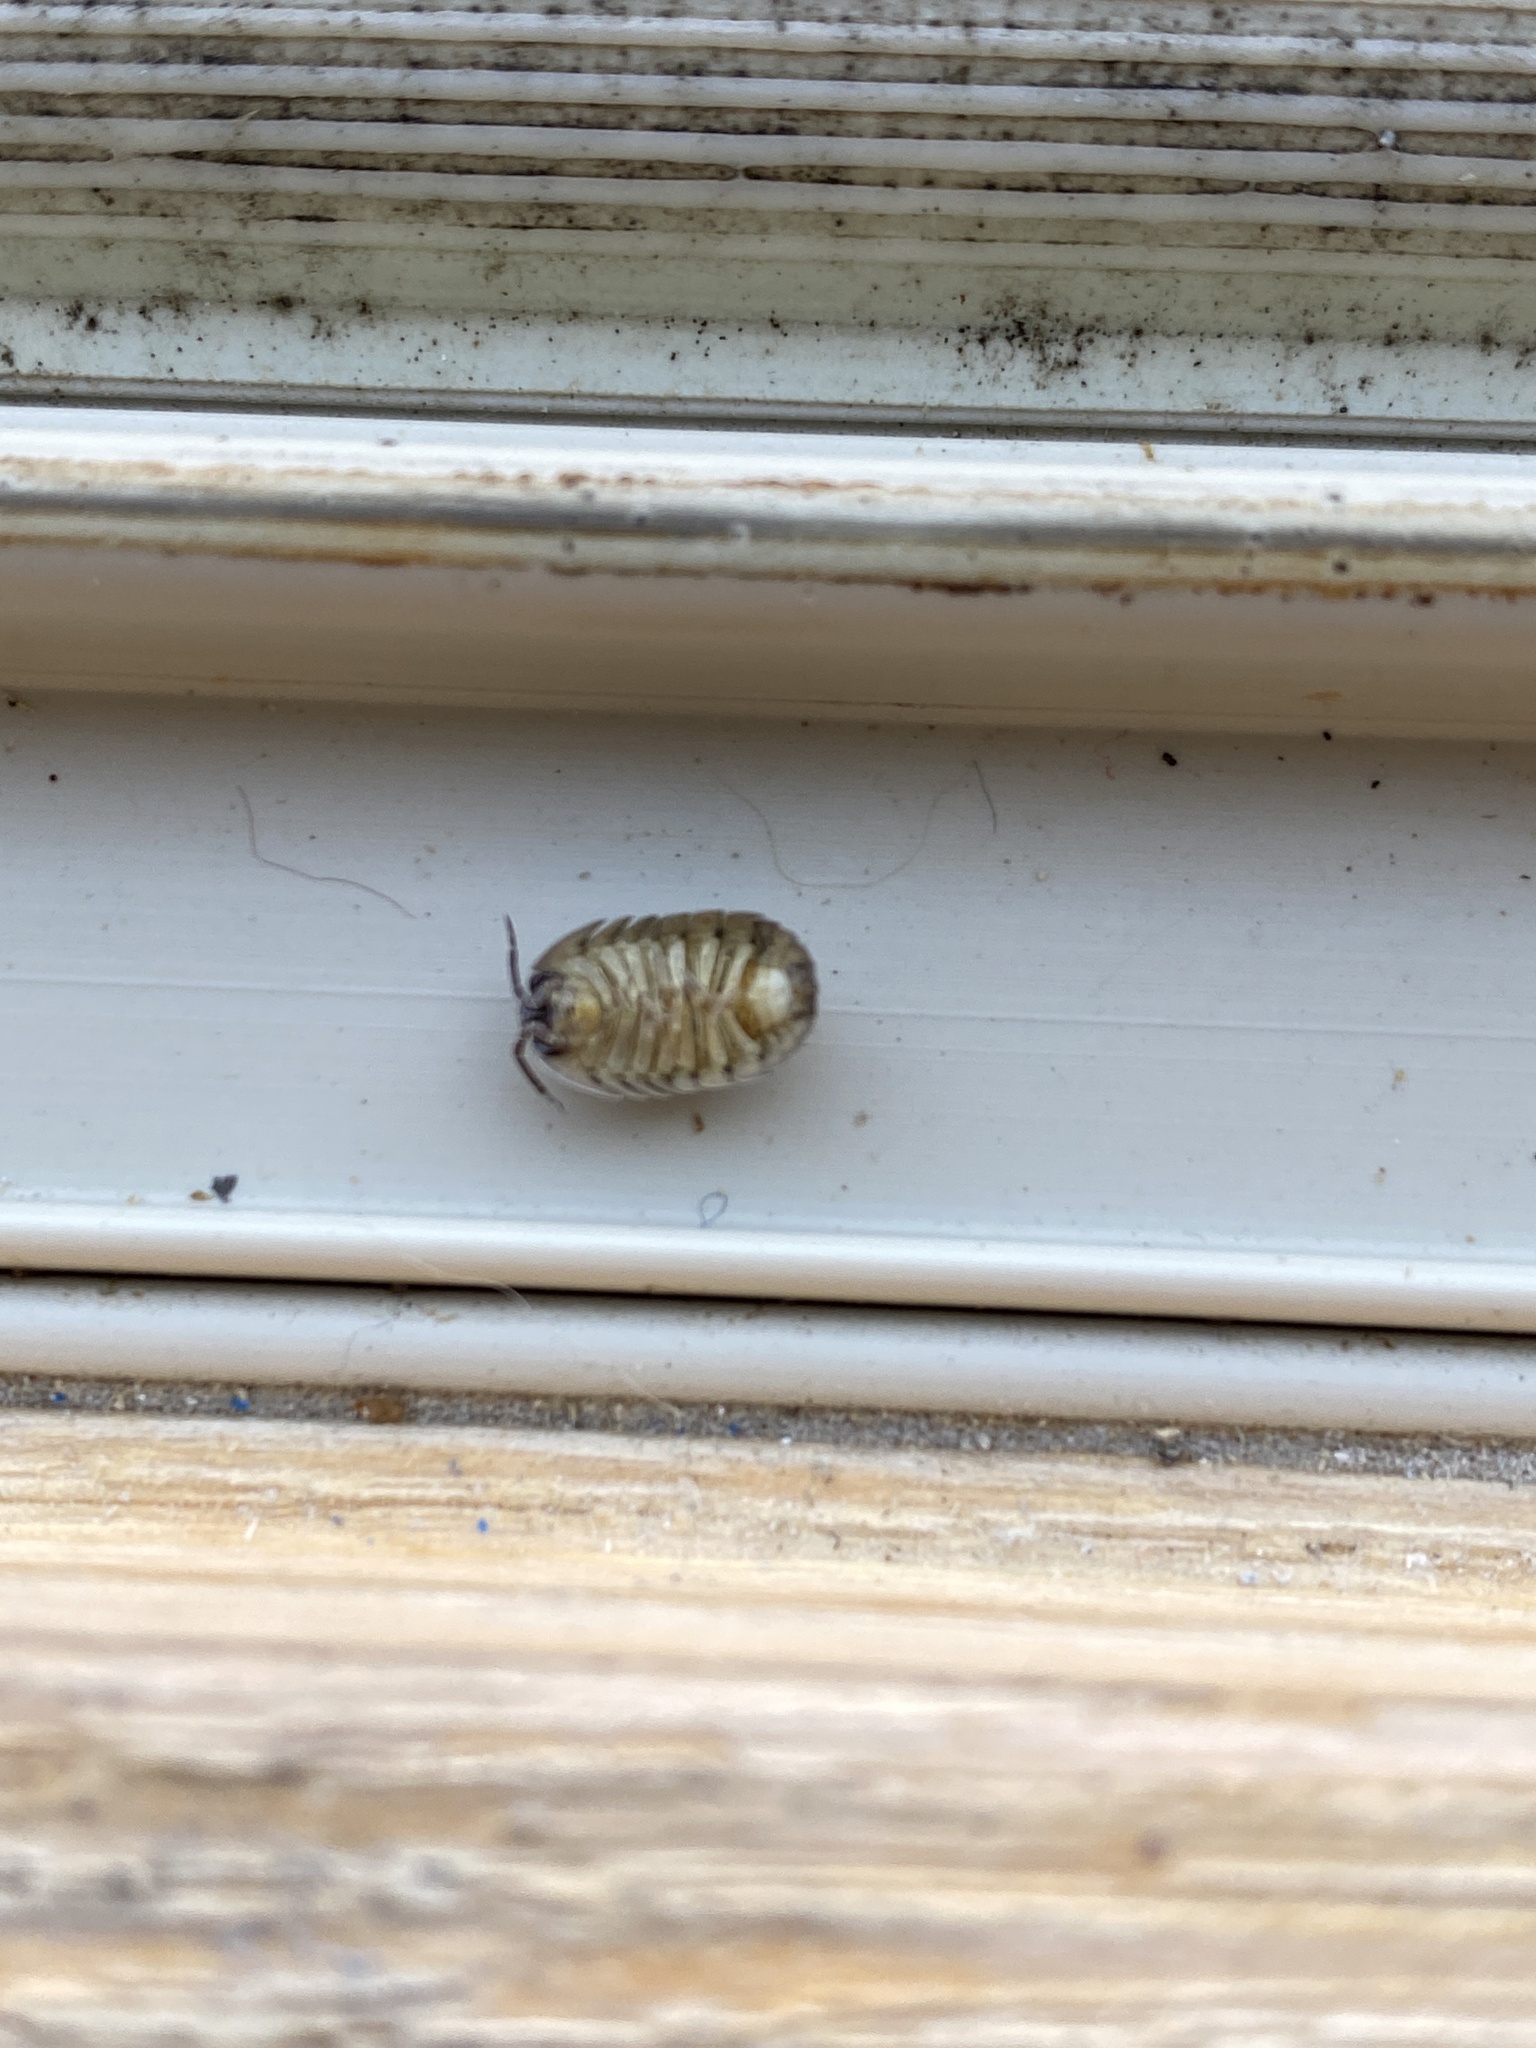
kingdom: Animalia
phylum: Arthropoda
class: Malacostraca
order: Isopoda
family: Armadillidiidae
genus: Armadillidium
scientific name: Armadillidium nasatum
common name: Isopod
